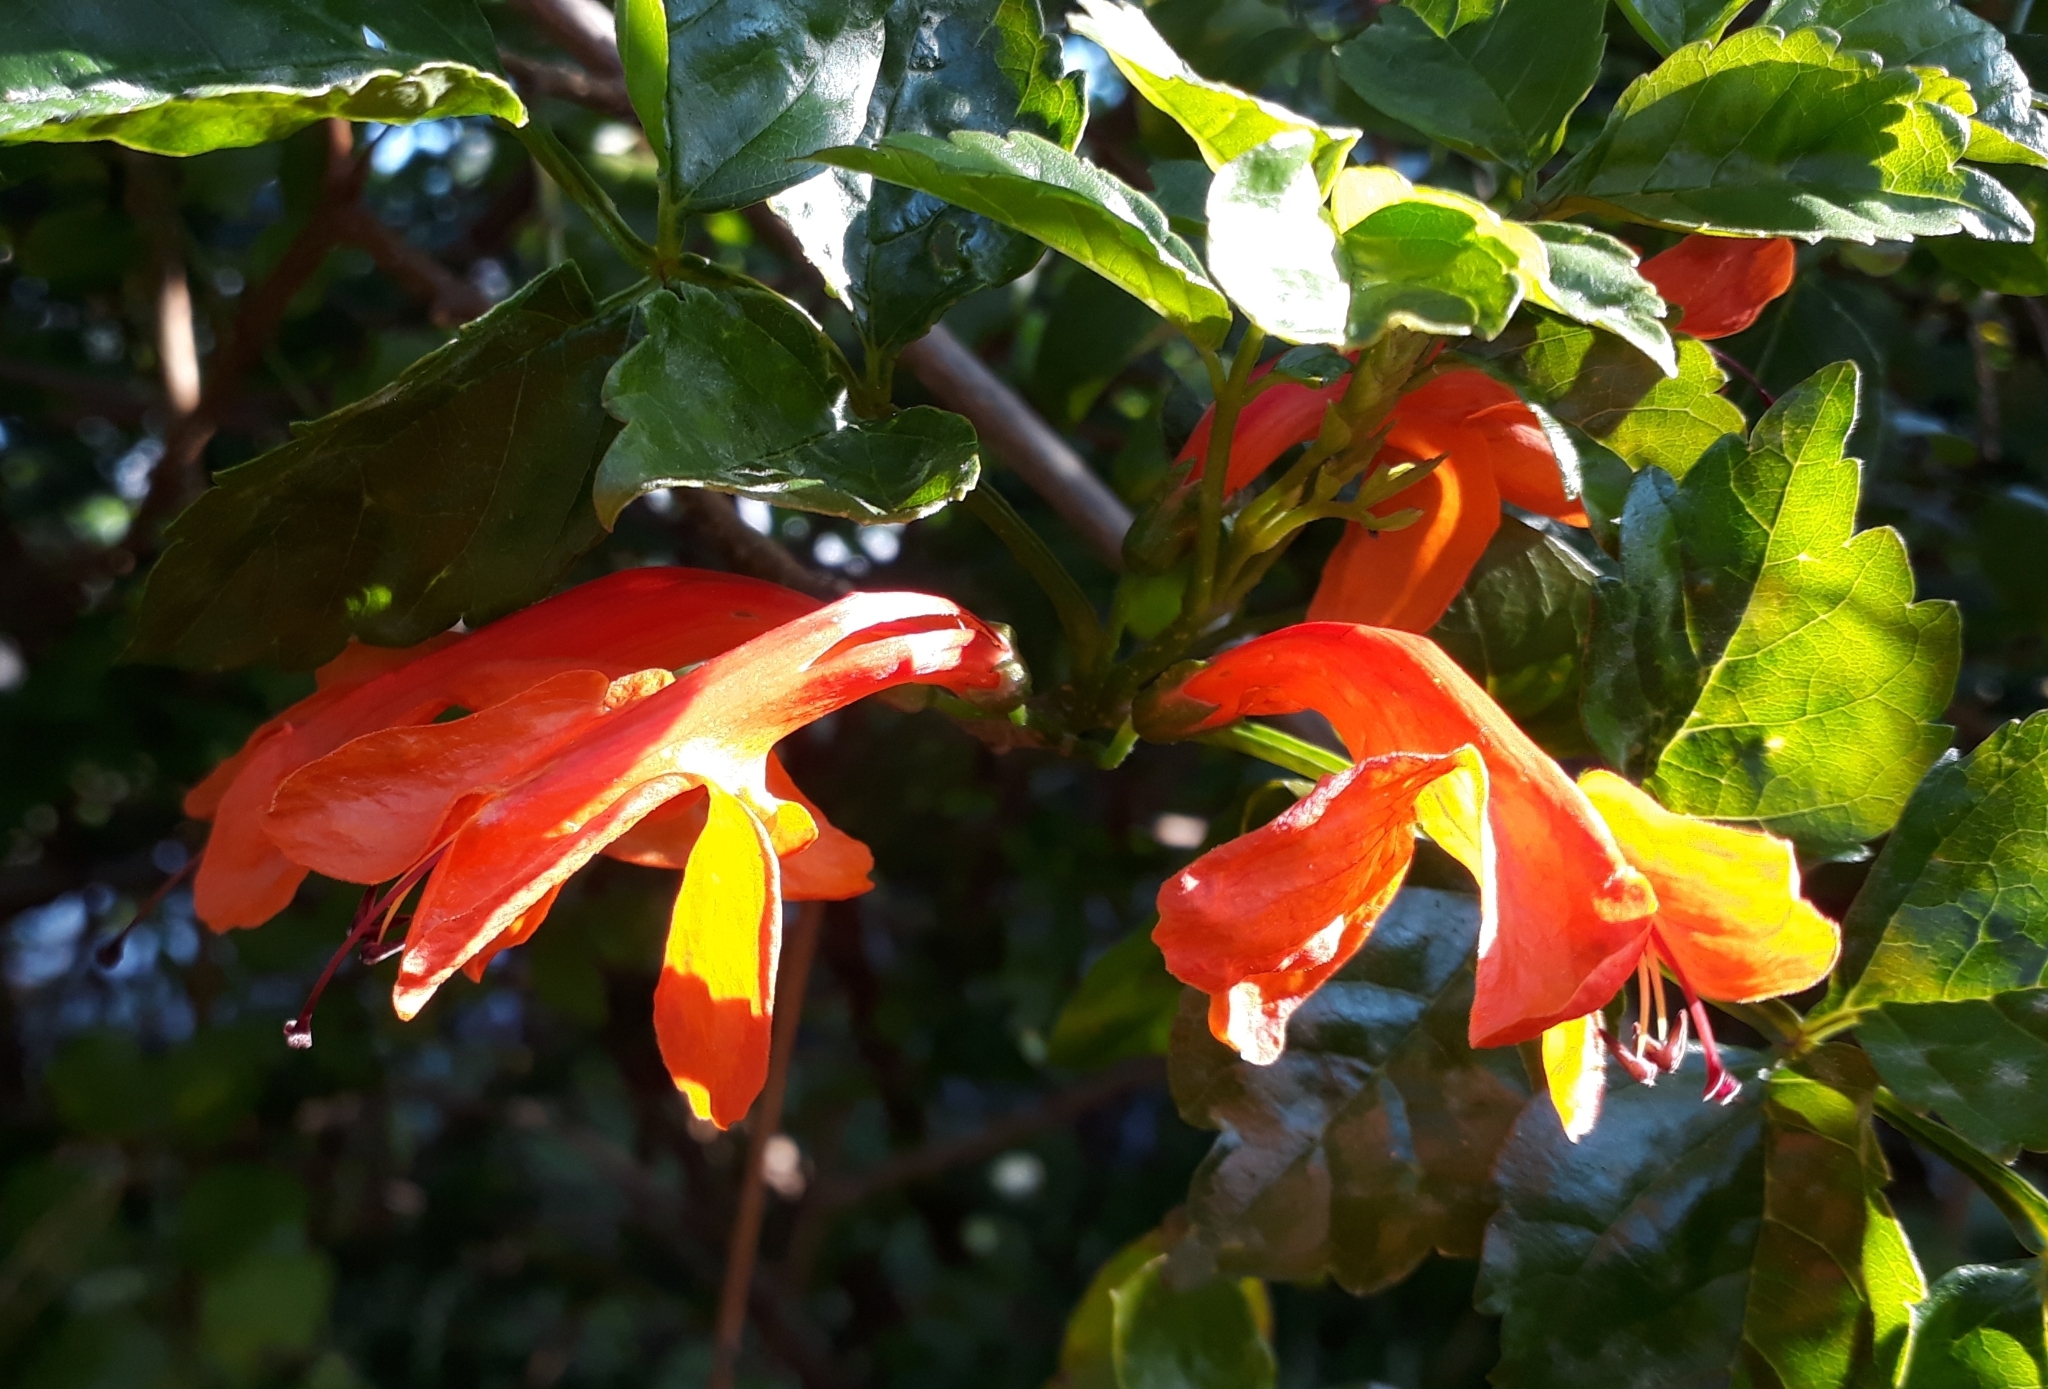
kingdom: Plantae
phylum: Tracheophyta
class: Magnoliopsida
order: Lamiales
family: Bignoniaceae
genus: Tecomaria
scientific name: Tecomaria capensis
